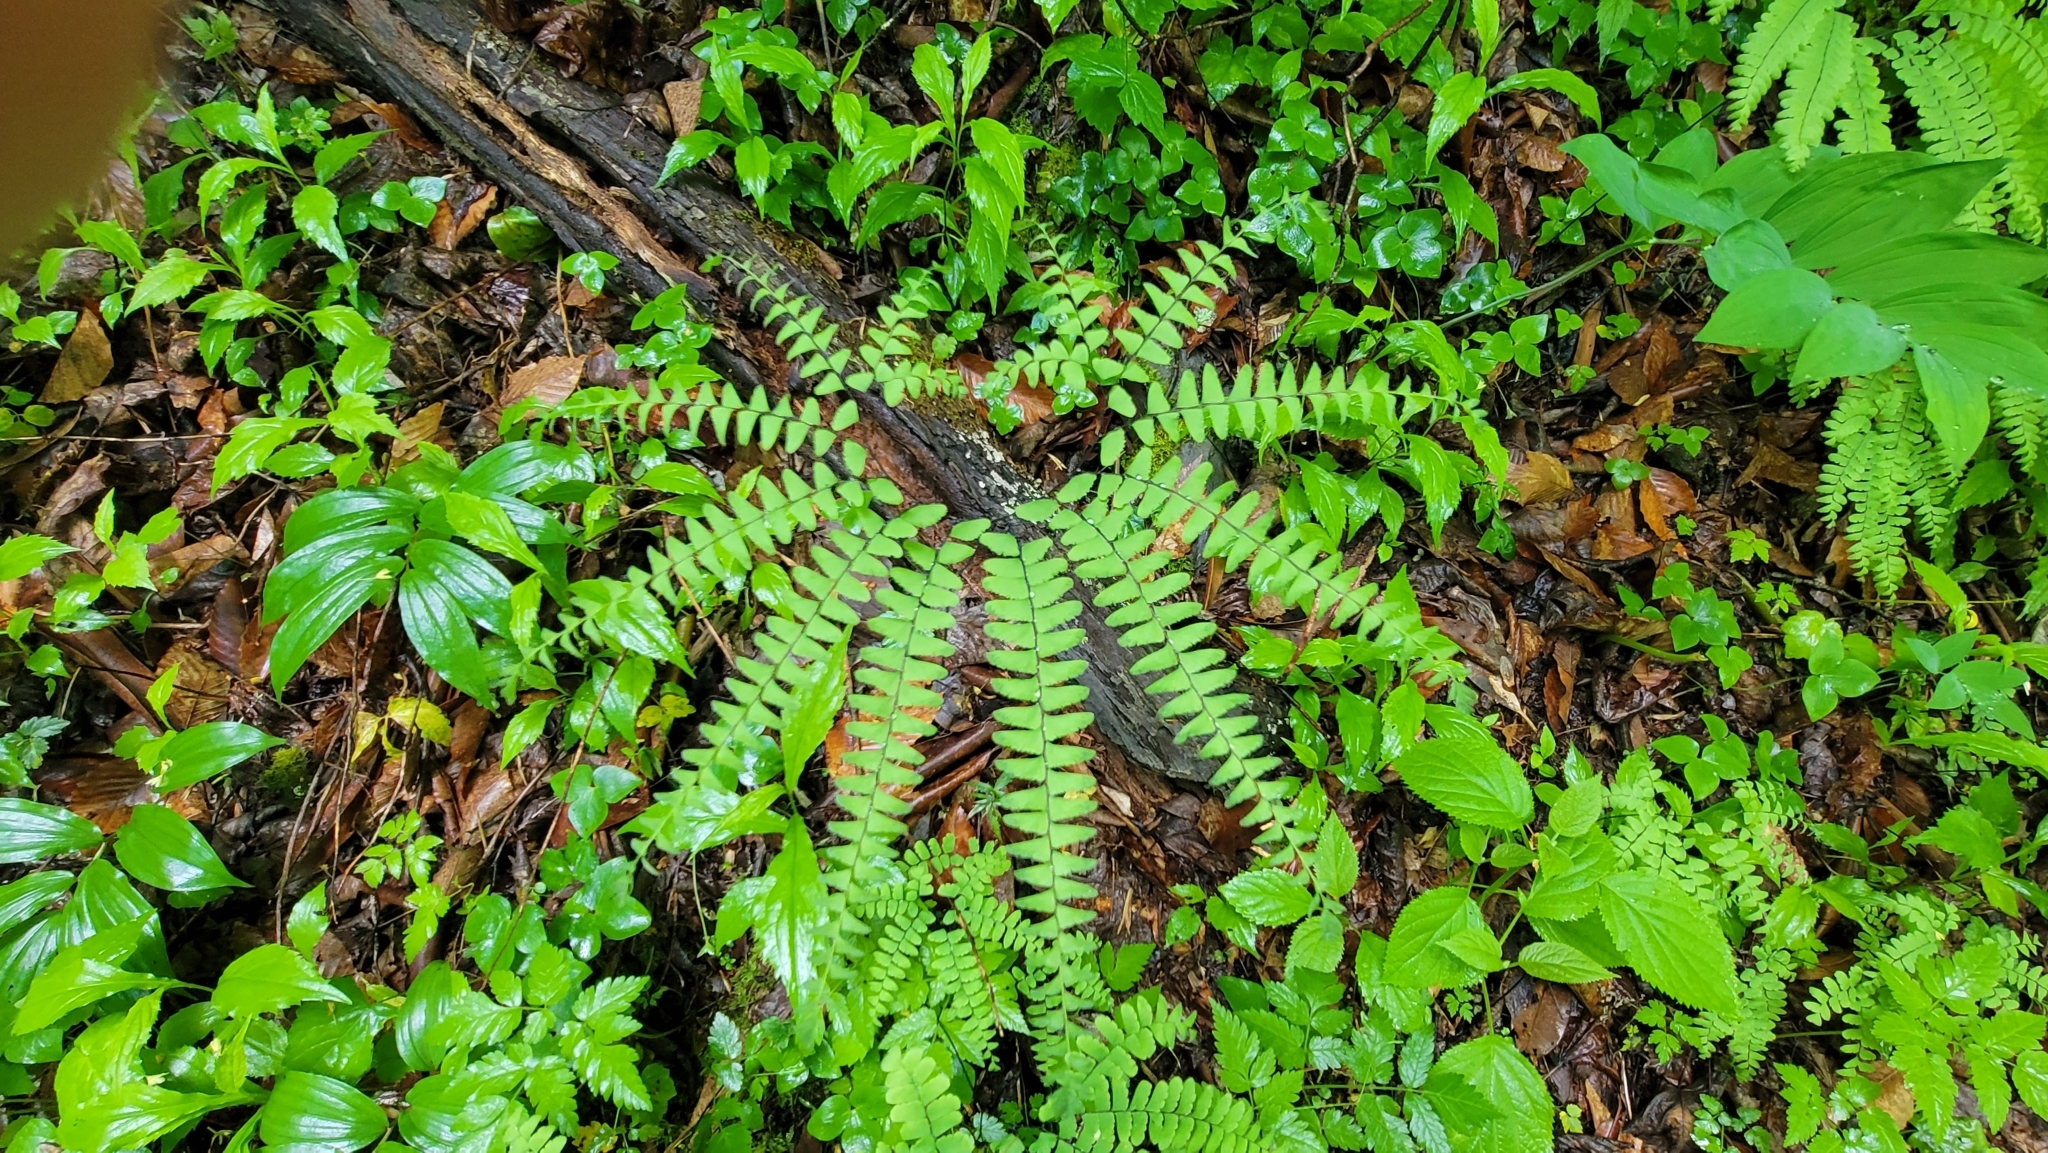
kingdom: Plantae
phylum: Tracheophyta
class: Polypodiopsida
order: Polypodiales
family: Pteridaceae
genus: Adiantum
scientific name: Adiantum pedatum
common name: Five-finger fern
